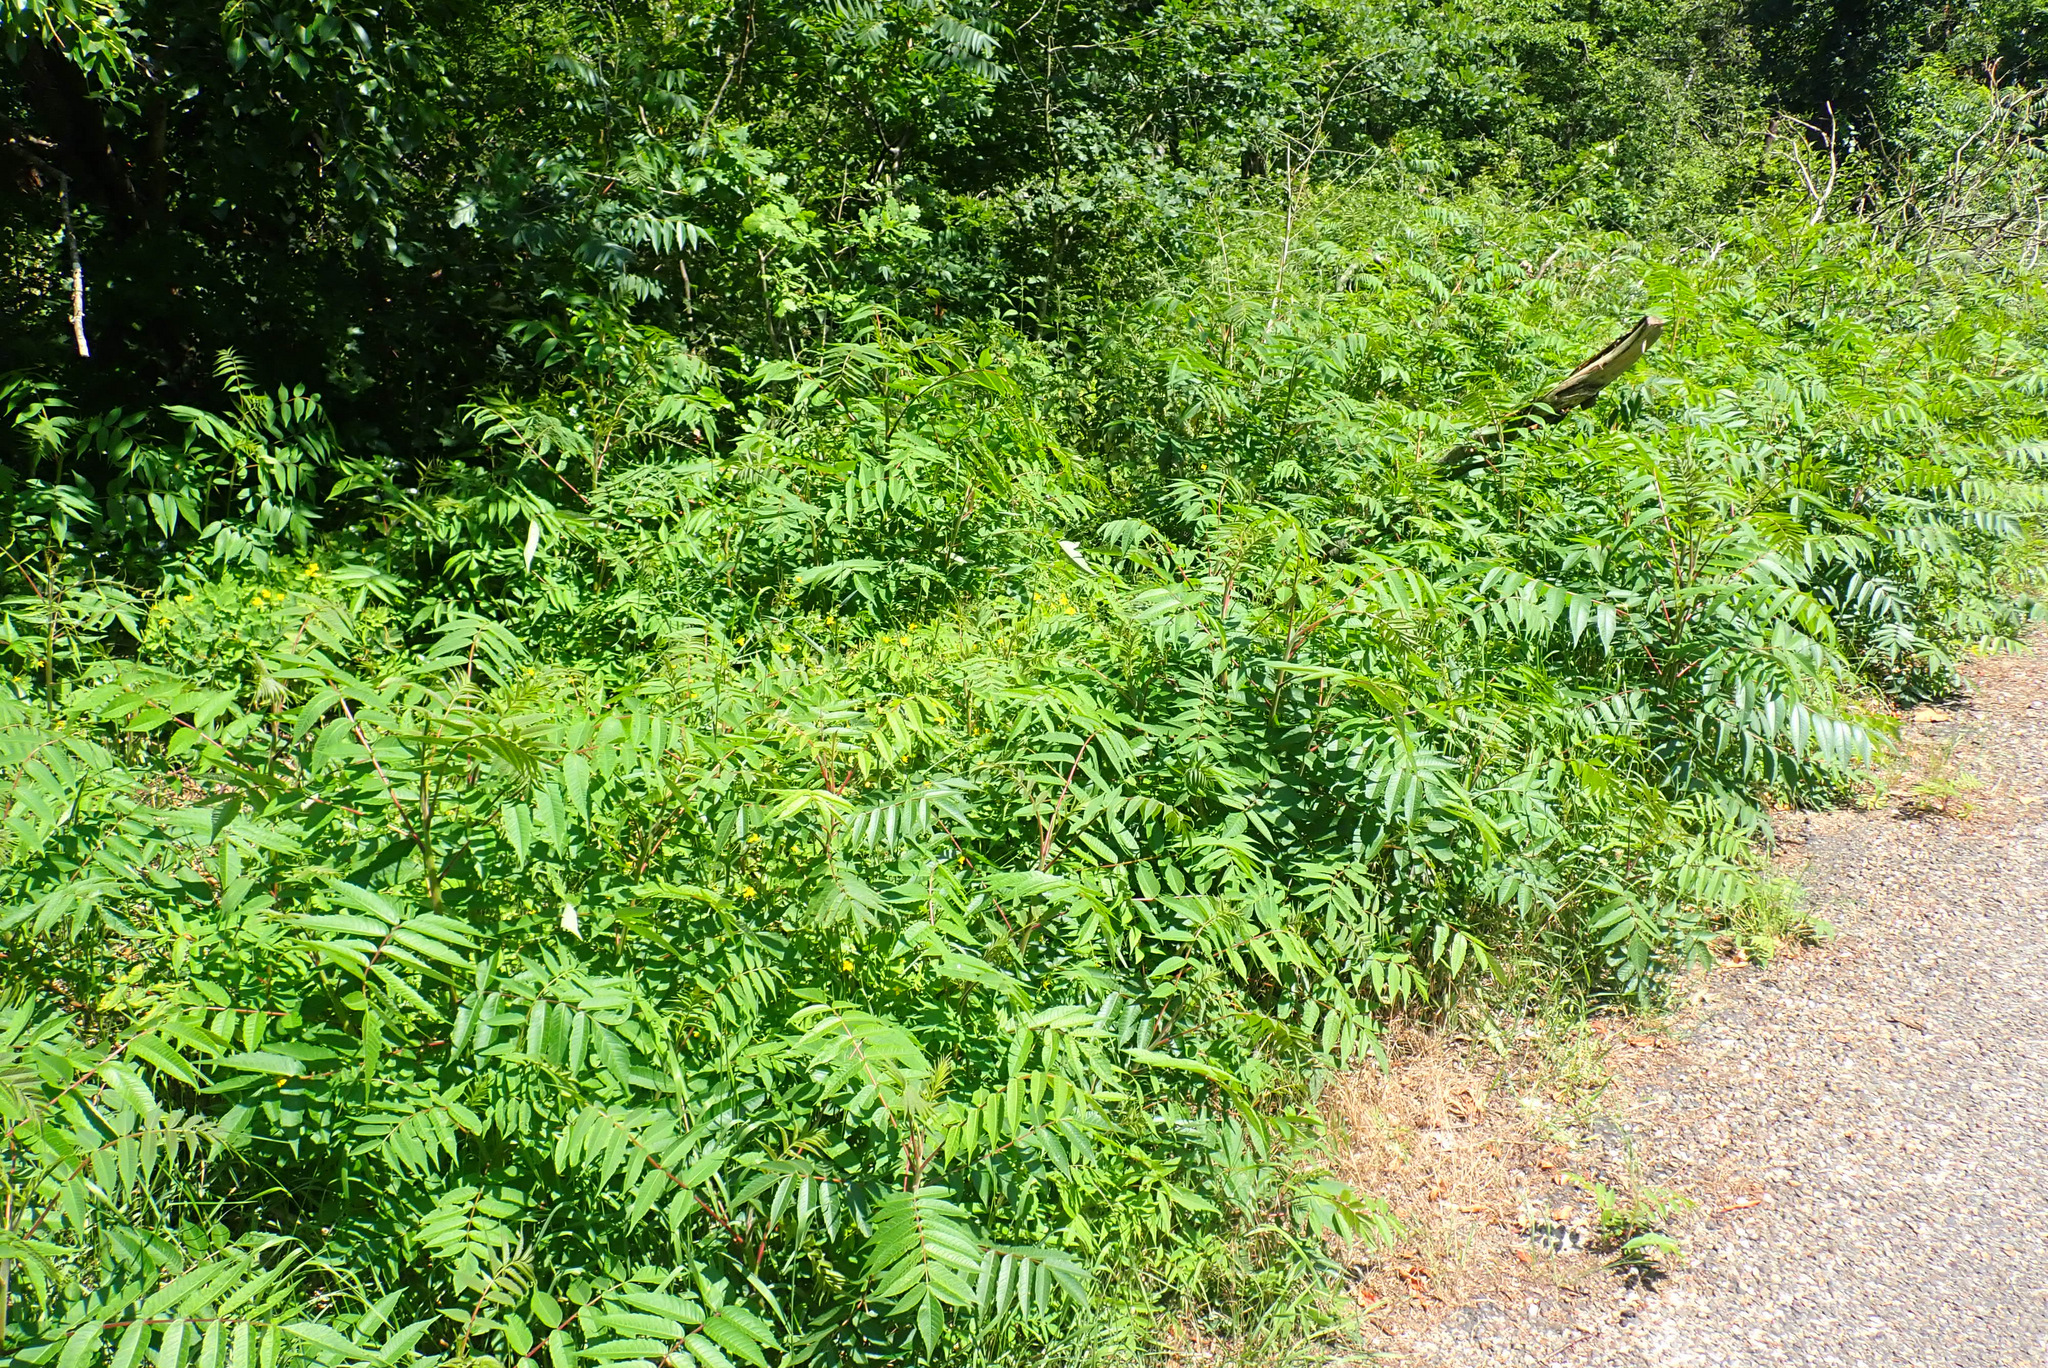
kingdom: Plantae
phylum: Tracheophyta
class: Magnoliopsida
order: Sapindales
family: Anacardiaceae
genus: Rhus
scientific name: Rhus typhina
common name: Staghorn sumac
